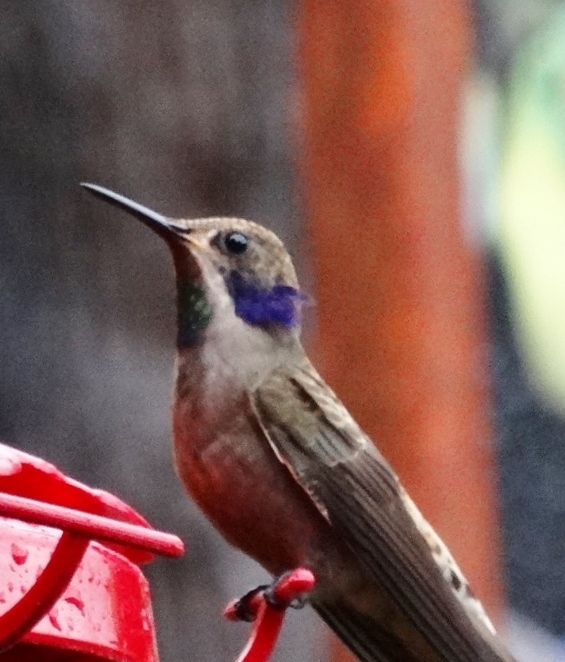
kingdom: Animalia
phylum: Chordata
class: Aves
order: Apodiformes
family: Trochilidae
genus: Colibri
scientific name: Colibri delphinae
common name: Brown violetear
